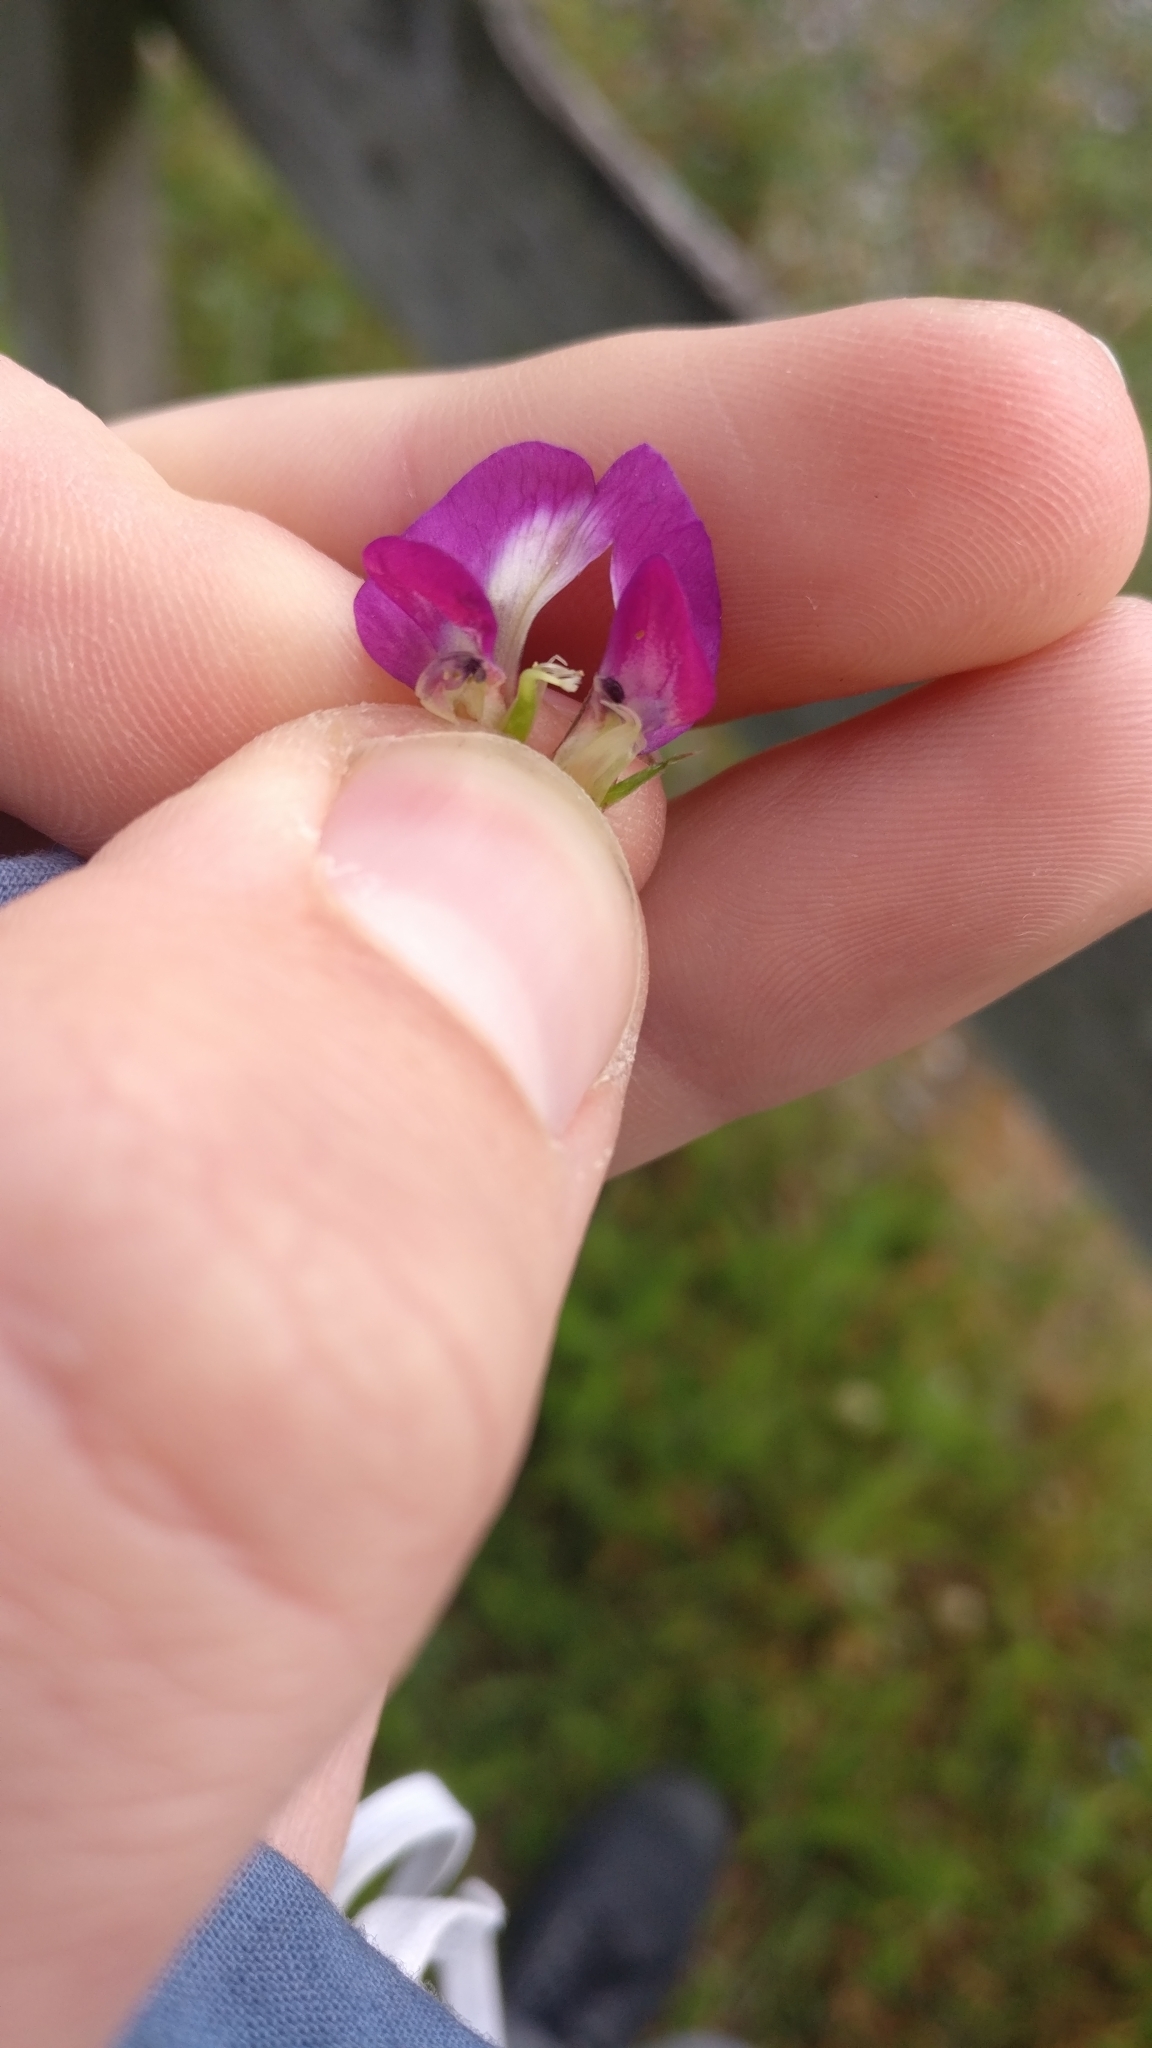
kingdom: Plantae
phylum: Tracheophyta
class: Magnoliopsida
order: Fabales
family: Fabaceae
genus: Vicia
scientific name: Vicia sativa
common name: Garden vetch
